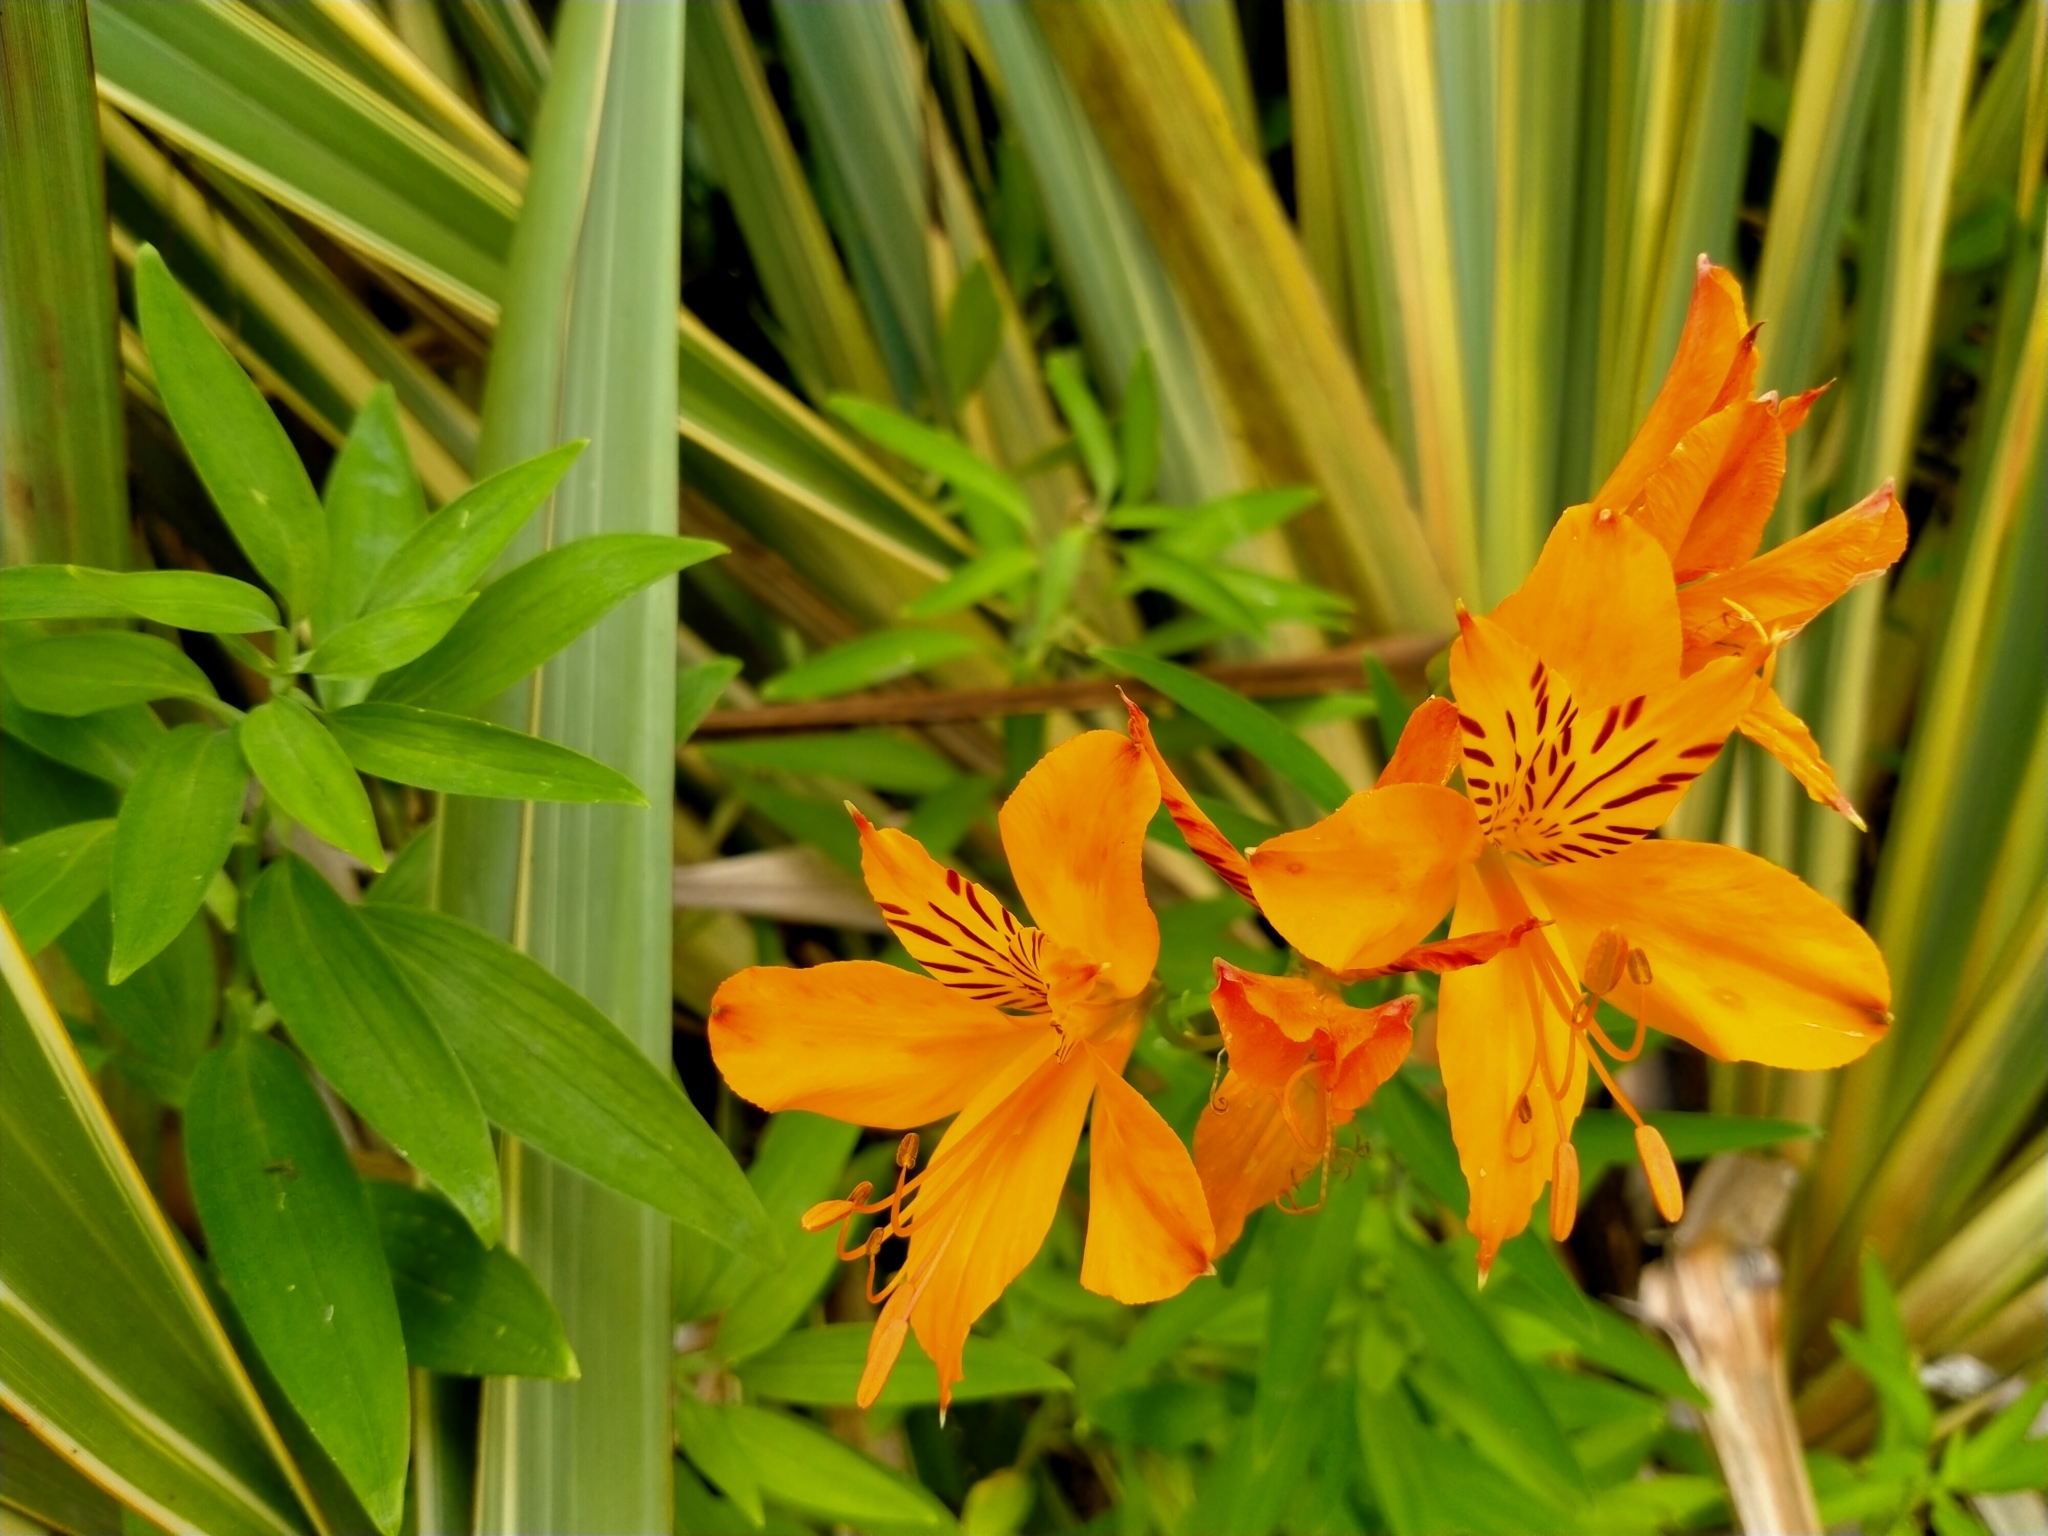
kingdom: Plantae
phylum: Tracheophyta
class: Liliopsida
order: Liliales
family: Alstroemeriaceae
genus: Alstroemeria
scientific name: Alstroemeria aurea
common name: Peruvian lily
